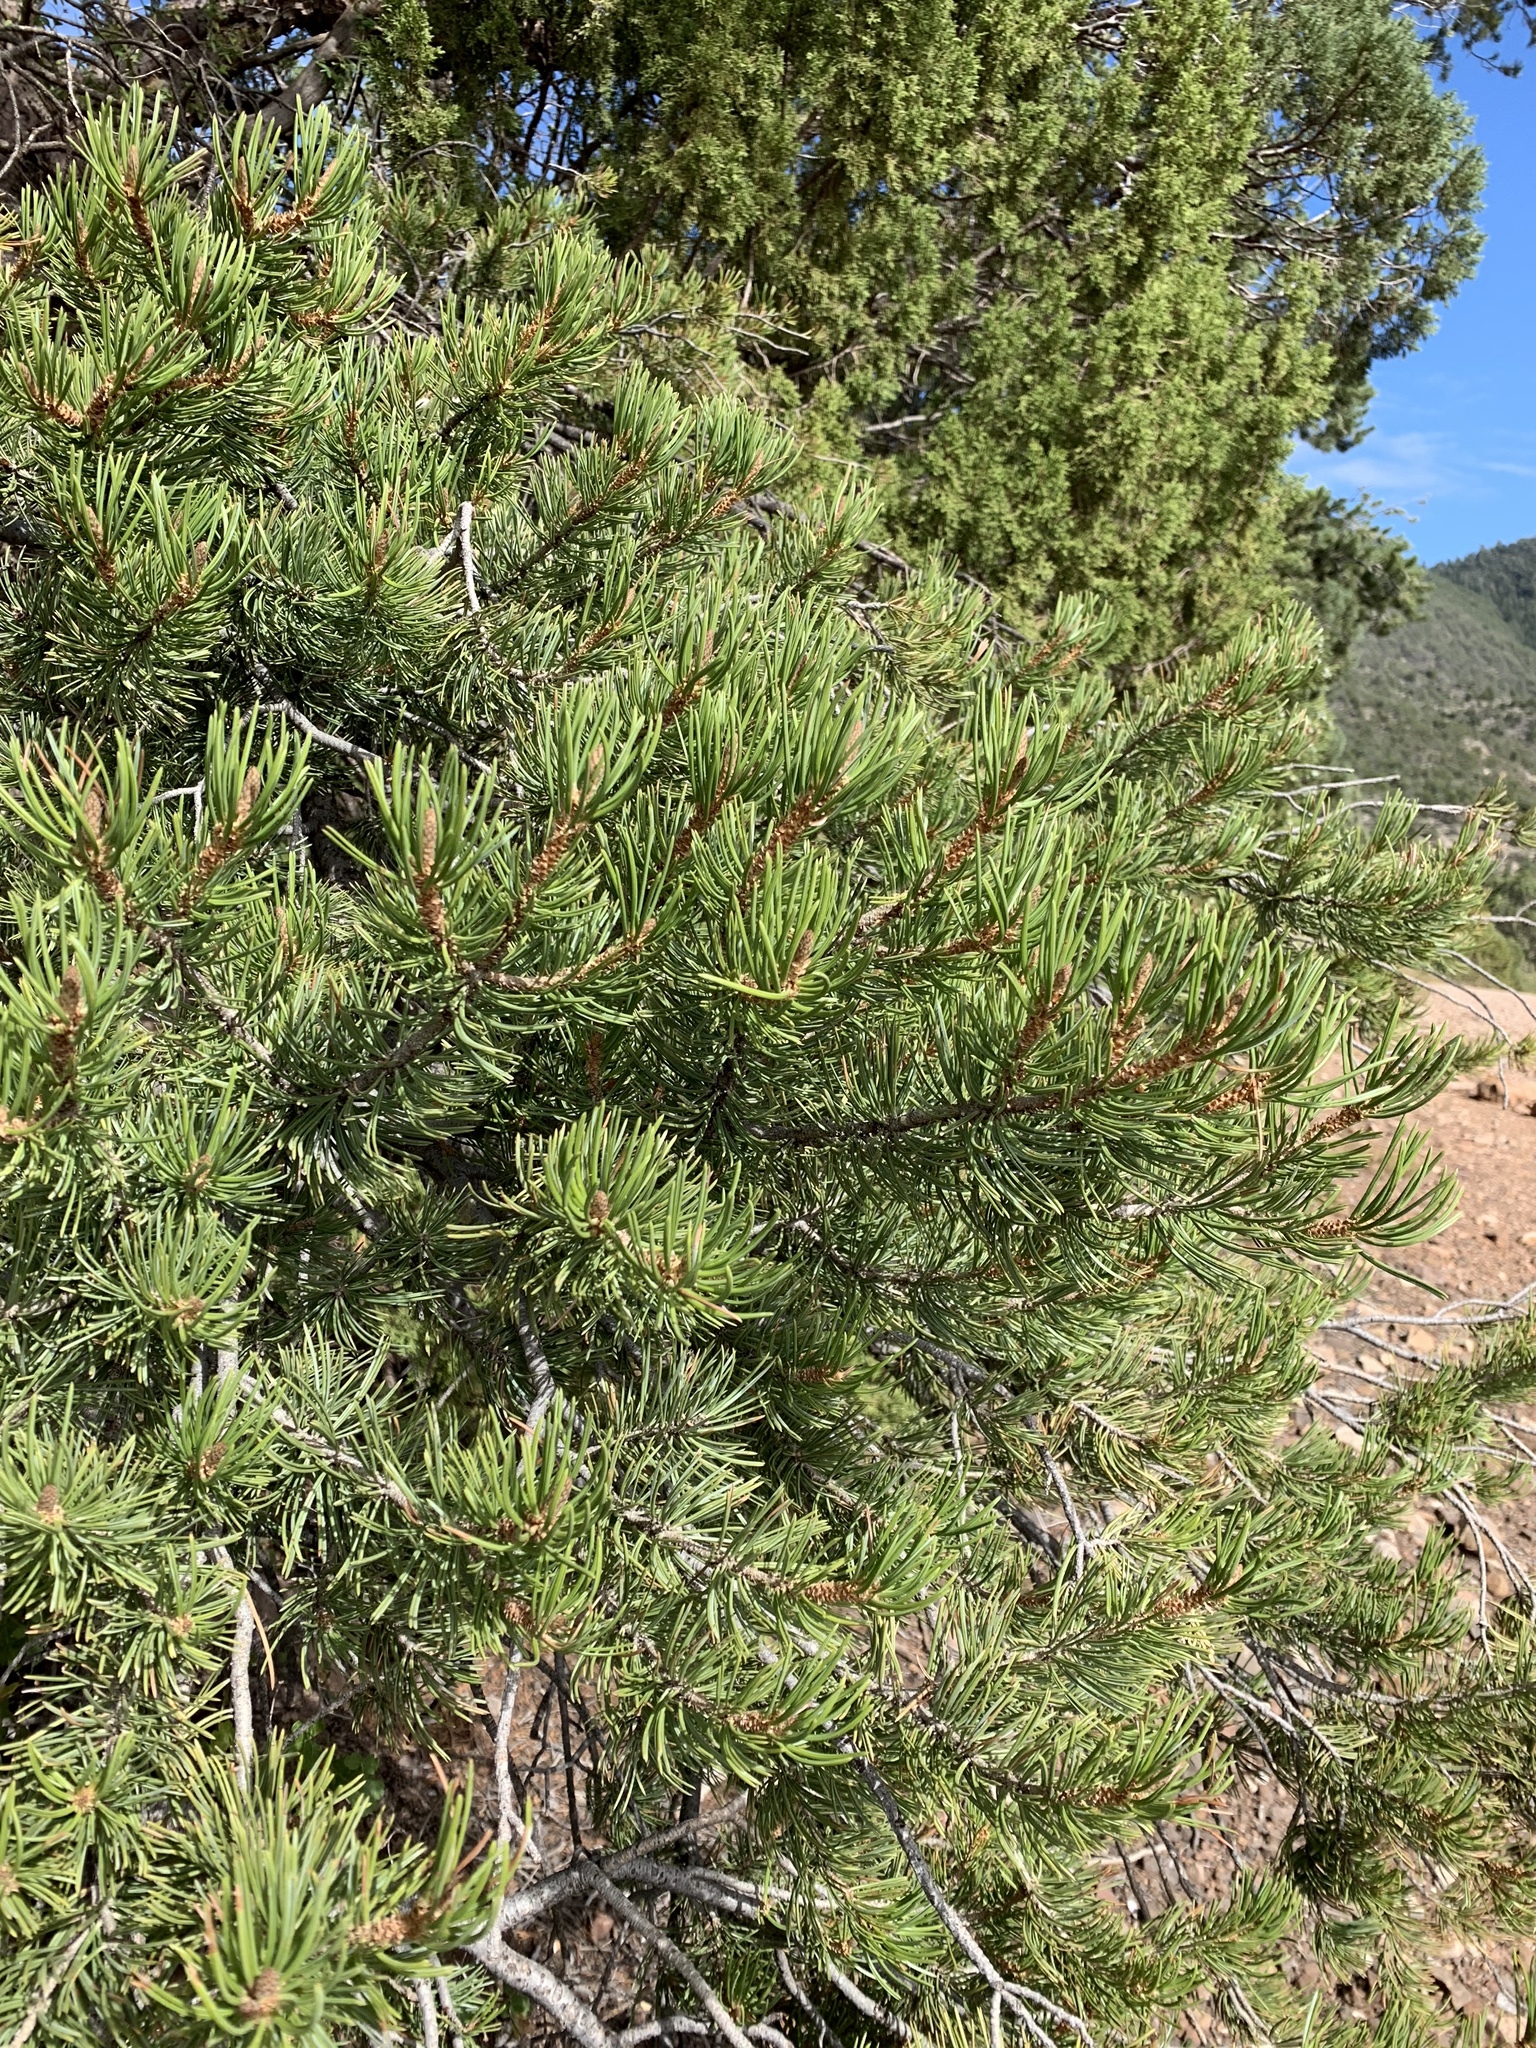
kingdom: Plantae
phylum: Tracheophyta
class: Pinopsida
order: Pinales
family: Pinaceae
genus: Pinus
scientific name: Pinus edulis
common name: Colorado pinyon
